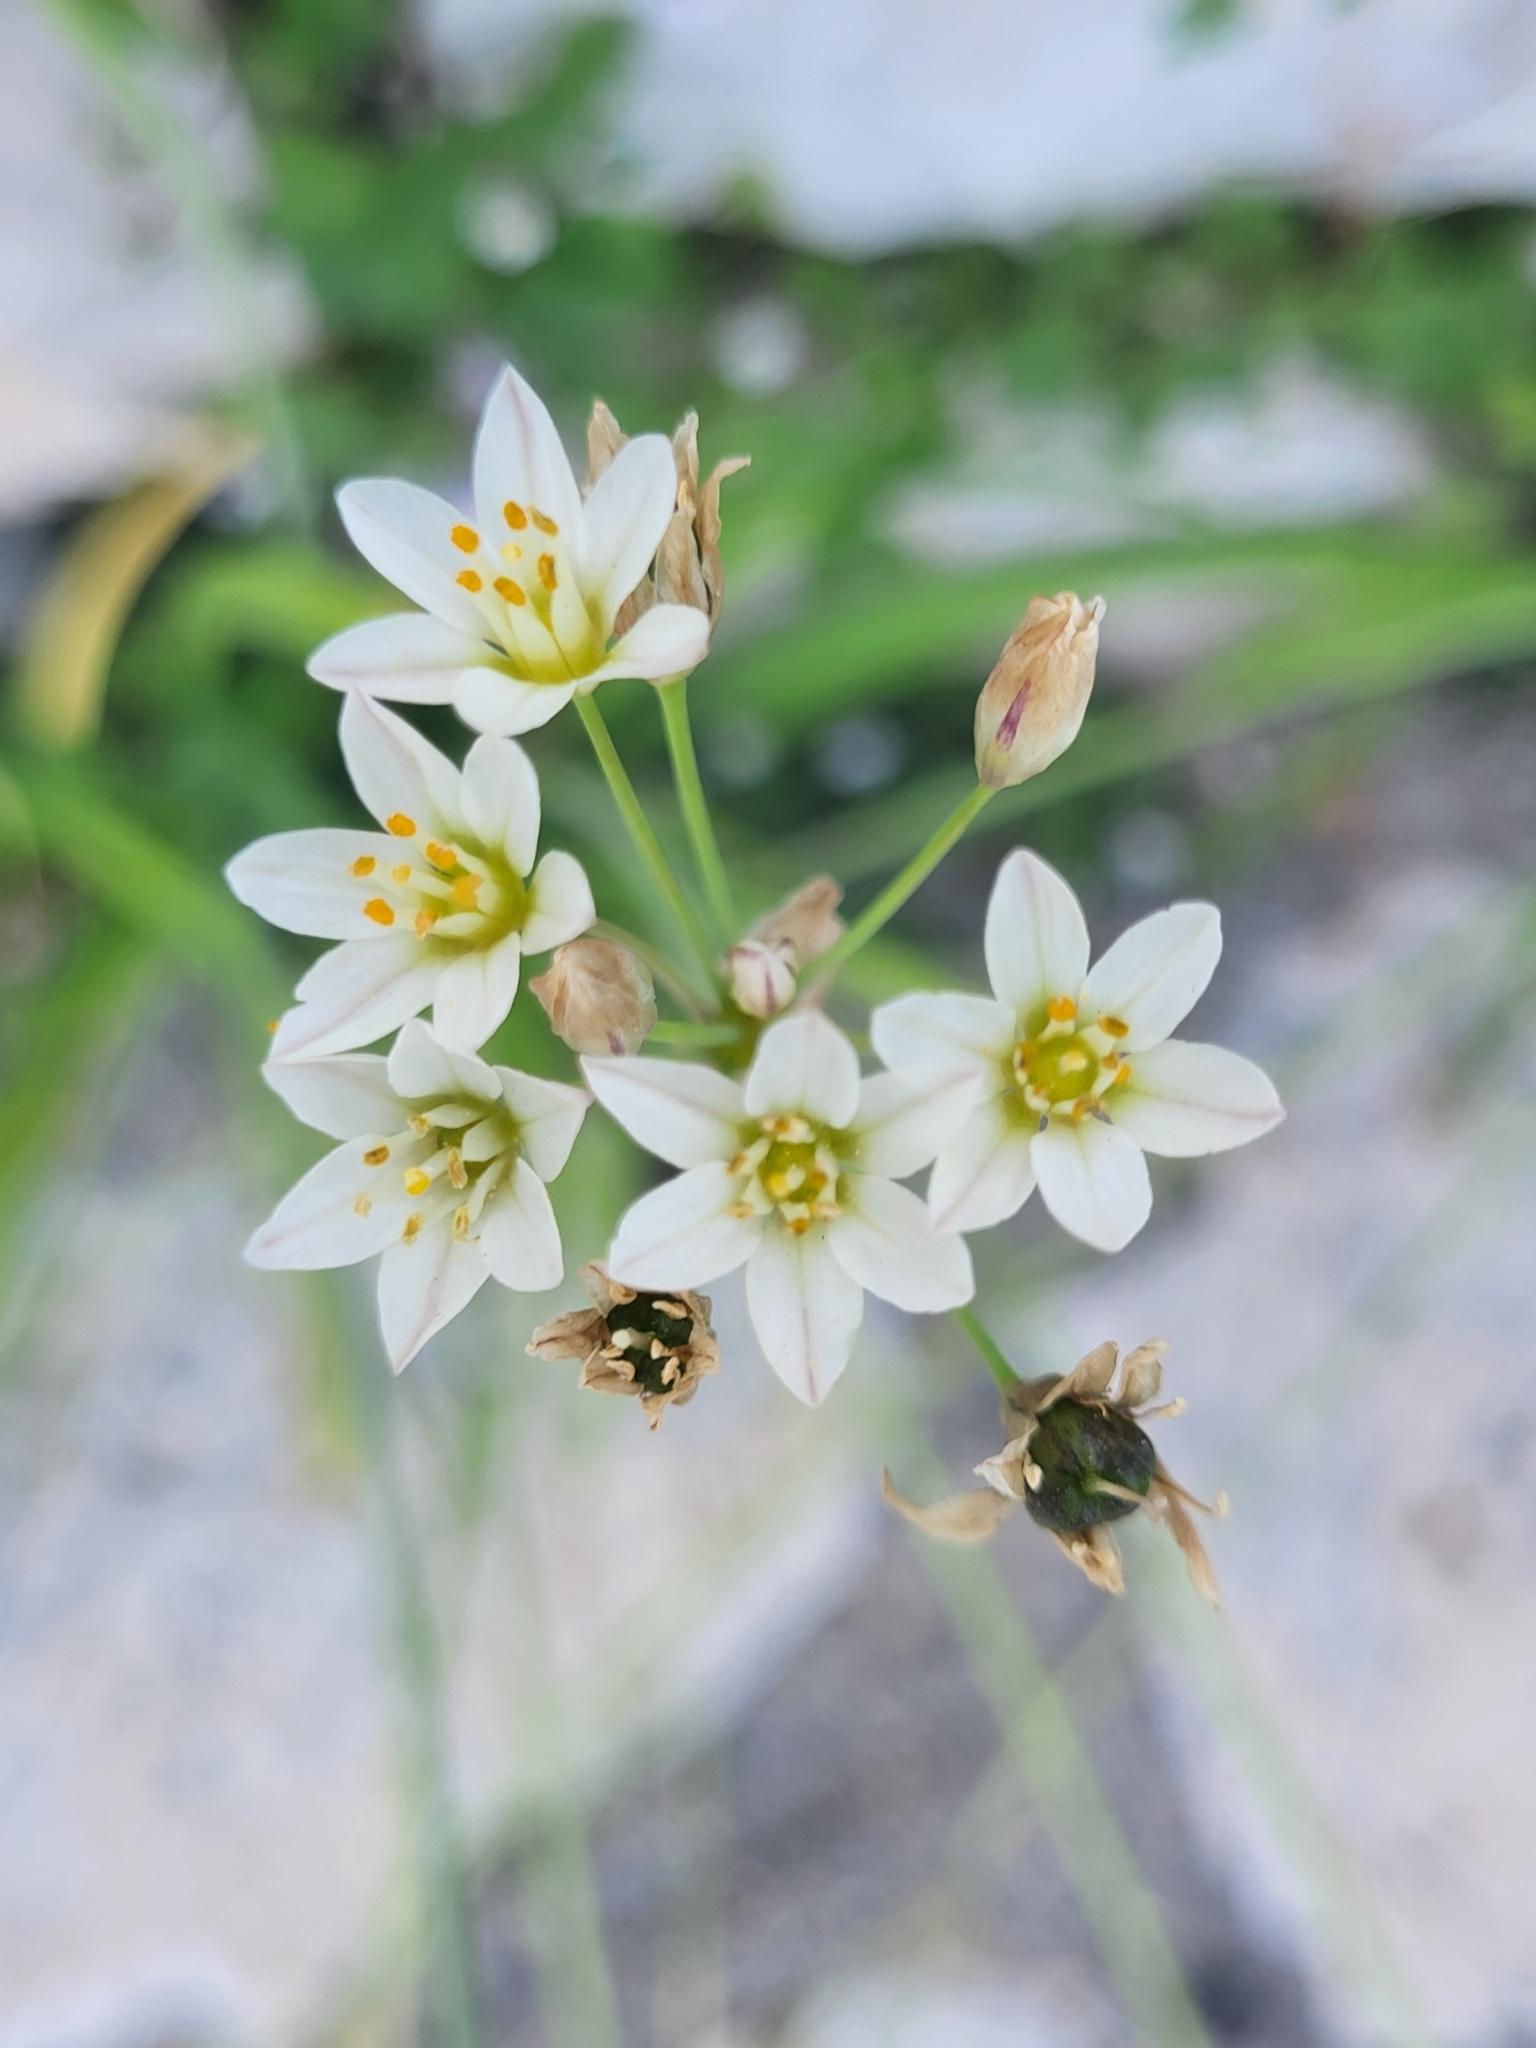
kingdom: Plantae
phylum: Tracheophyta
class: Liliopsida
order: Asparagales
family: Amaryllidaceae
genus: Nothoscordum
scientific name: Nothoscordum gracile
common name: Slender false garlic
